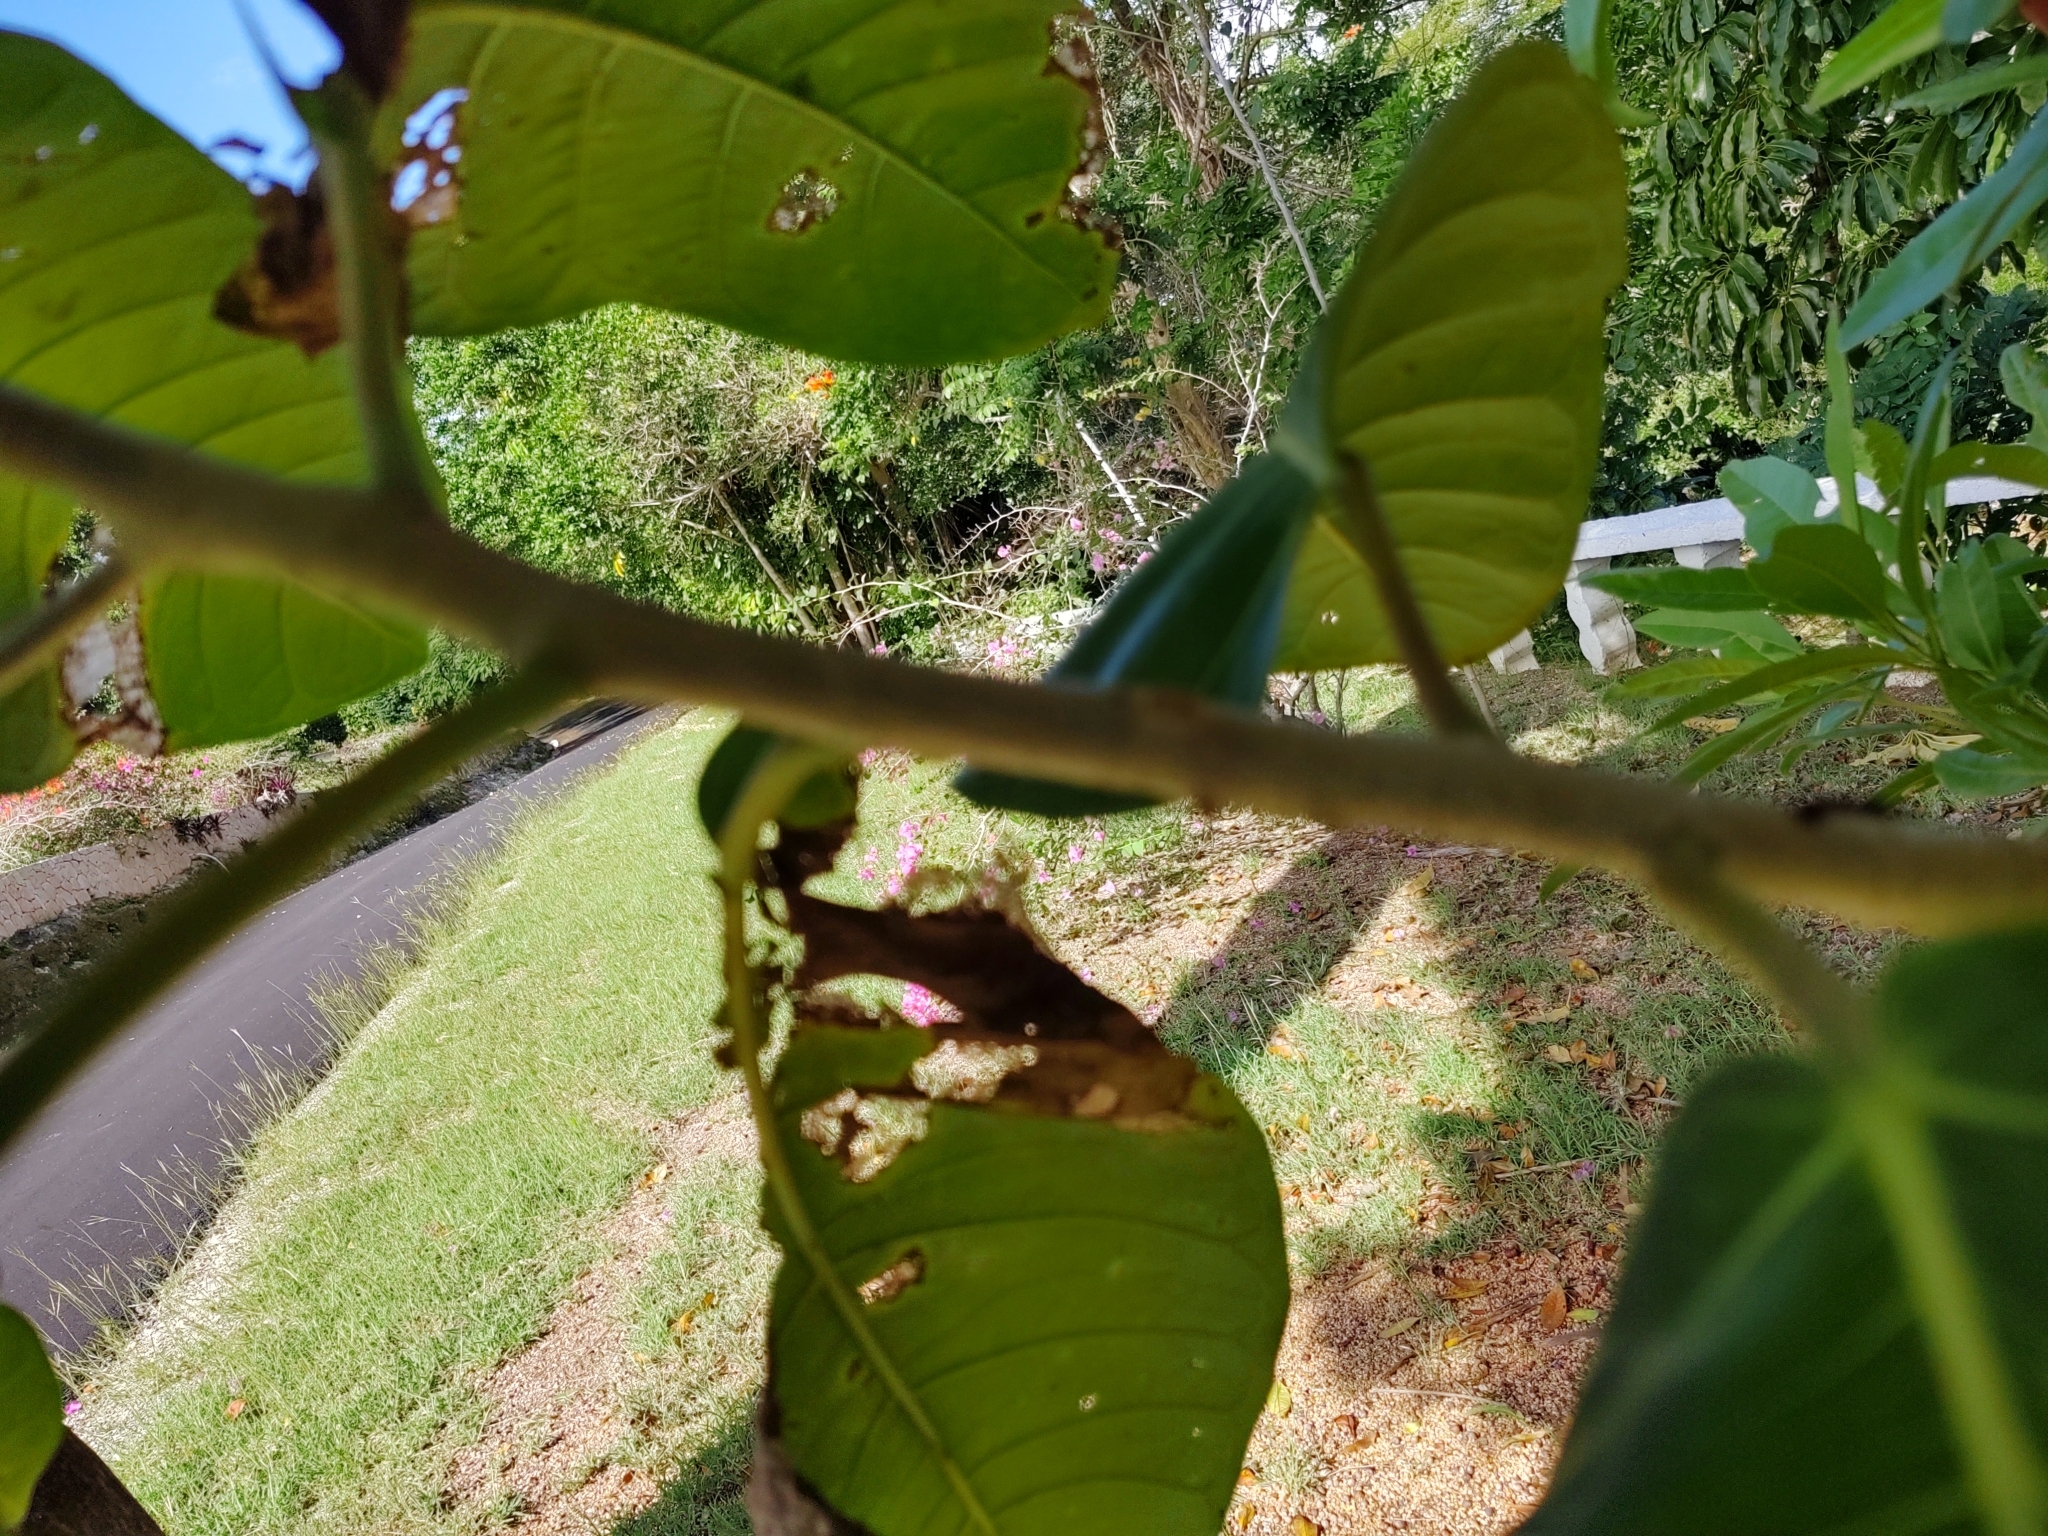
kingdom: Plantae
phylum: Tracheophyta
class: Magnoliopsida
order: Rosales
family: Moraceae
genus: Ficus
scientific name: Ficus trigonata
